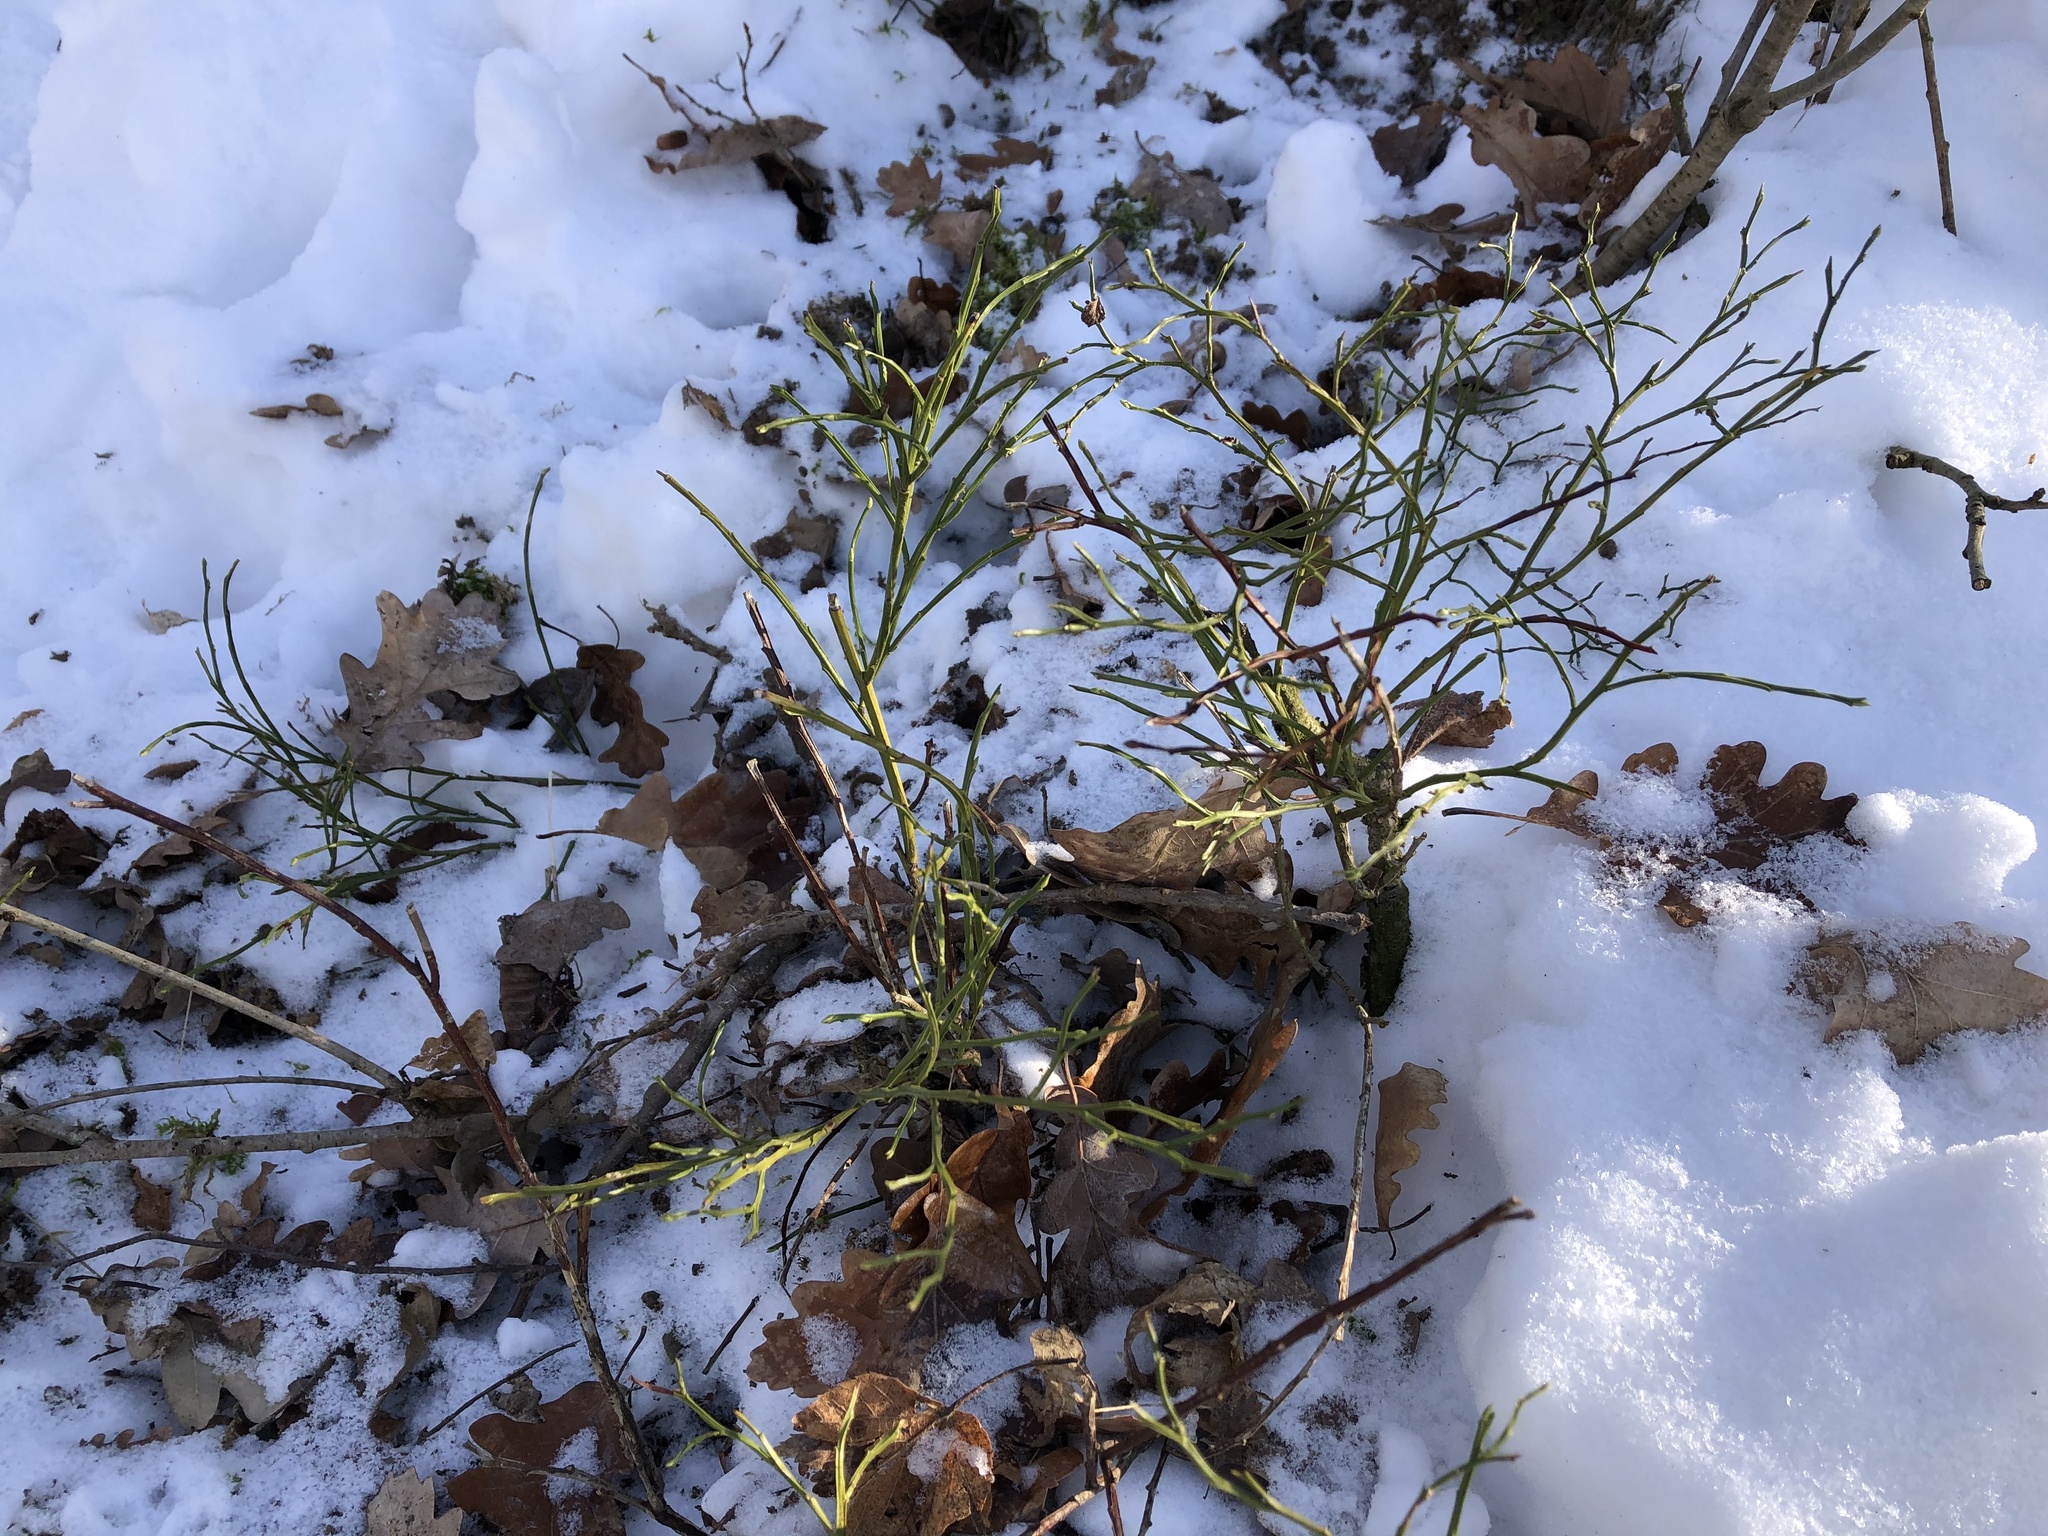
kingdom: Plantae
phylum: Tracheophyta
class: Magnoliopsida
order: Ericales
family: Ericaceae
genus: Vaccinium
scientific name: Vaccinium myrtillus
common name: Bilberry
